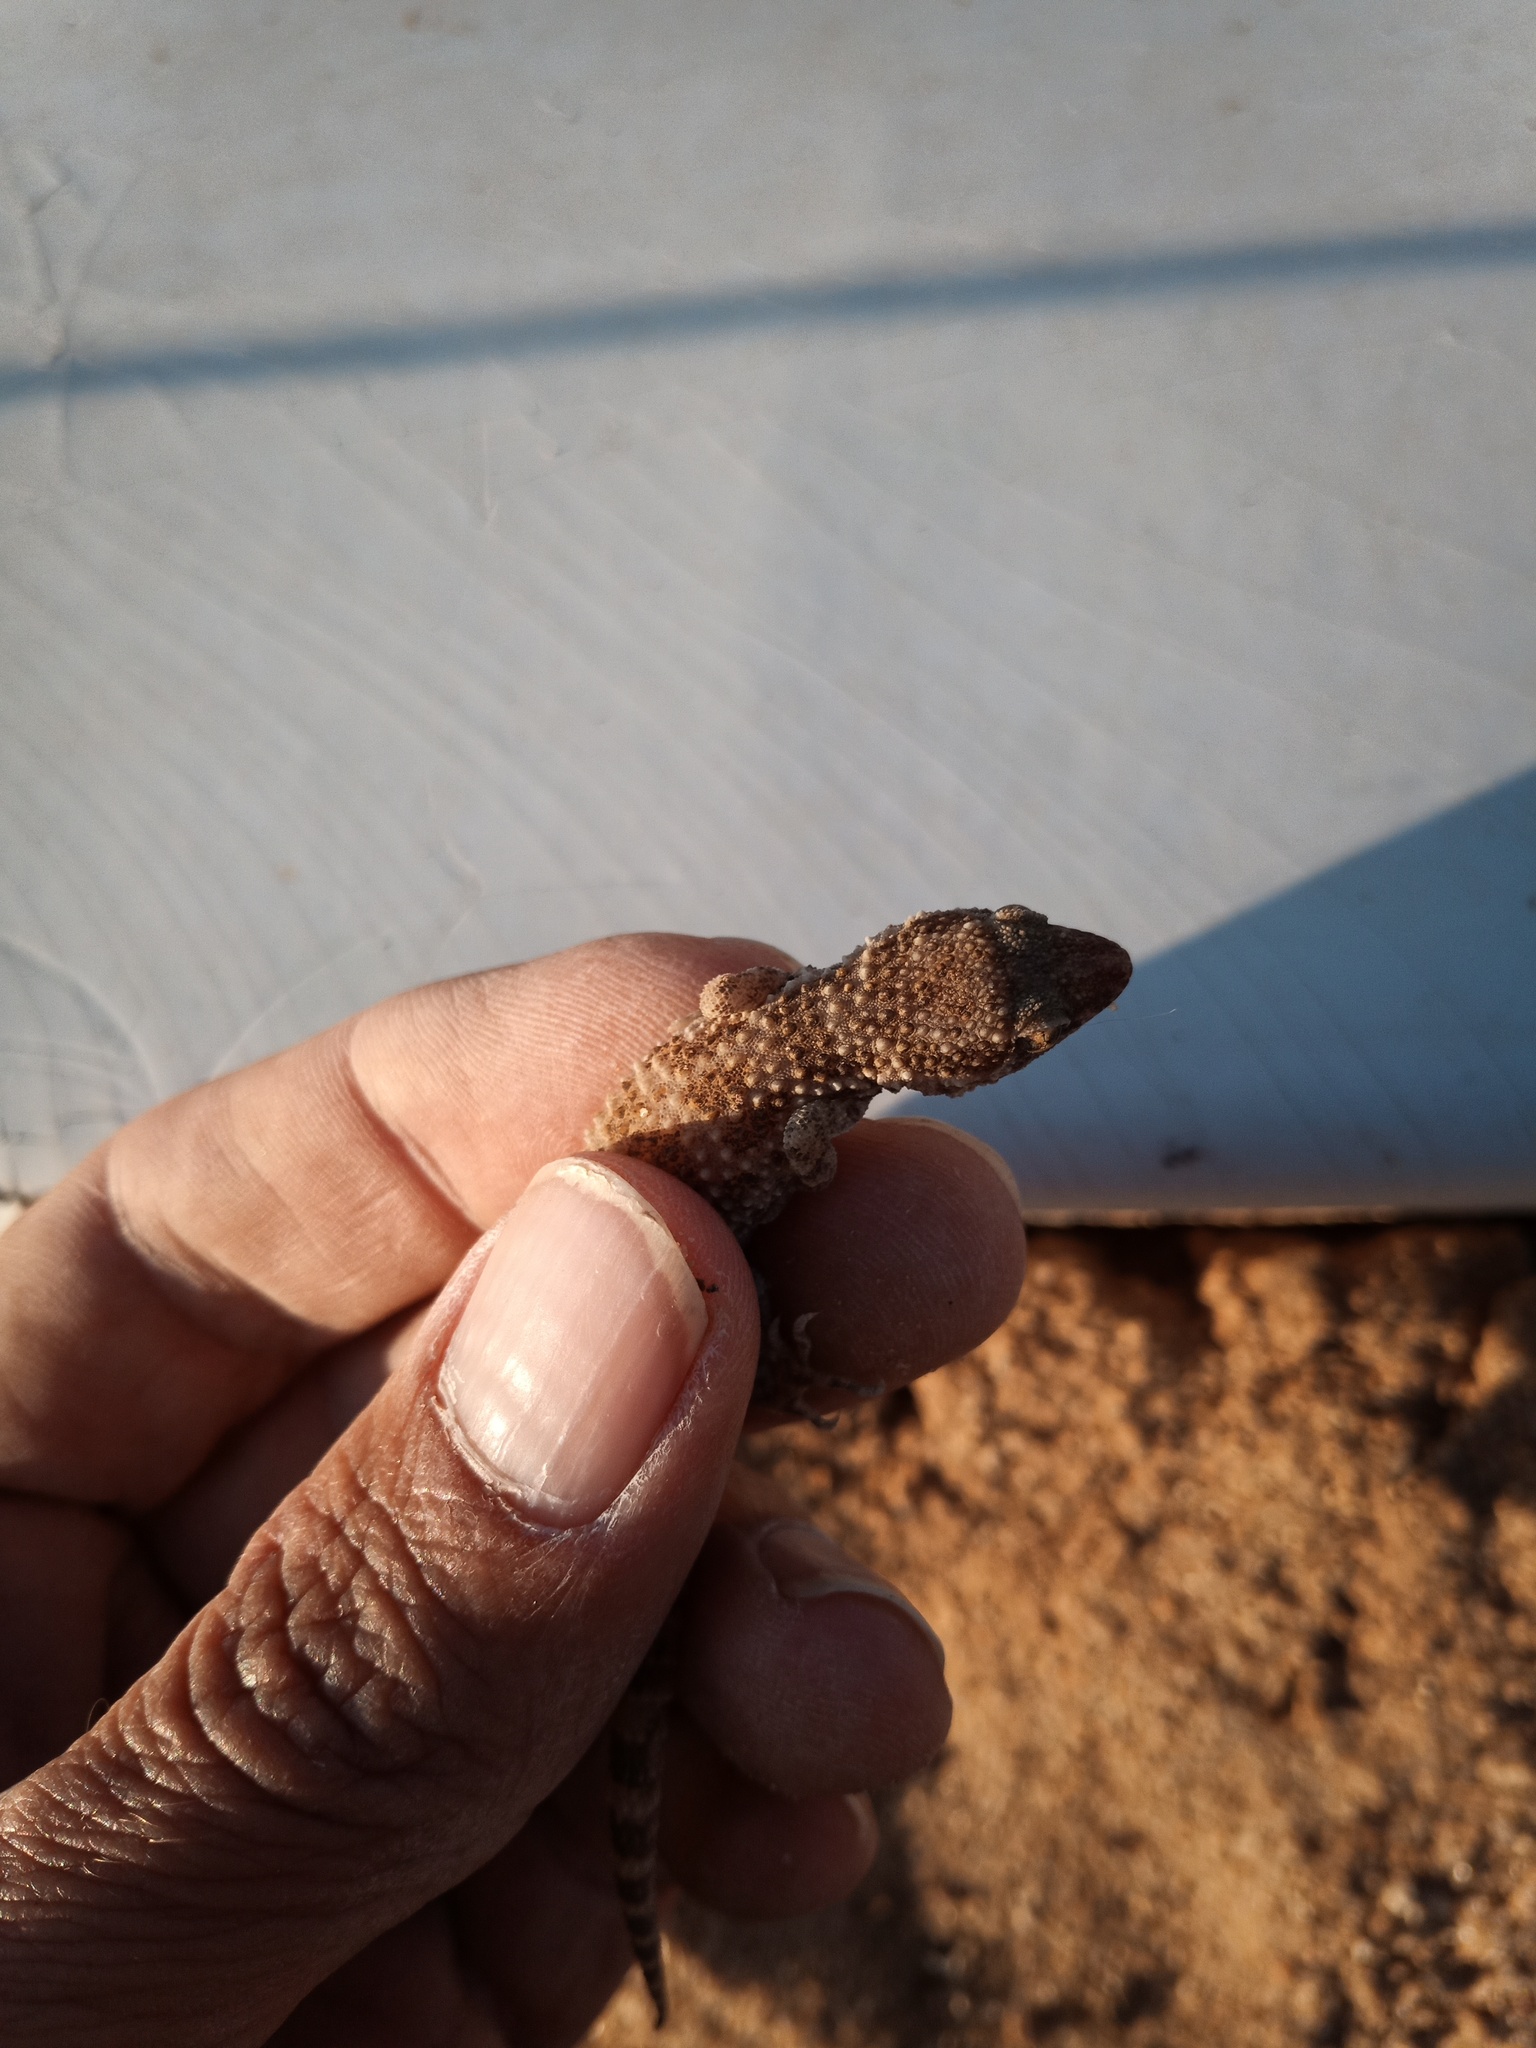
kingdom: Animalia
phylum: Chordata
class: Squamata
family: Gekkonidae
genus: Bunopus
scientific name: Bunopus tuberculatus
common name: Southern tuberculated gecko
